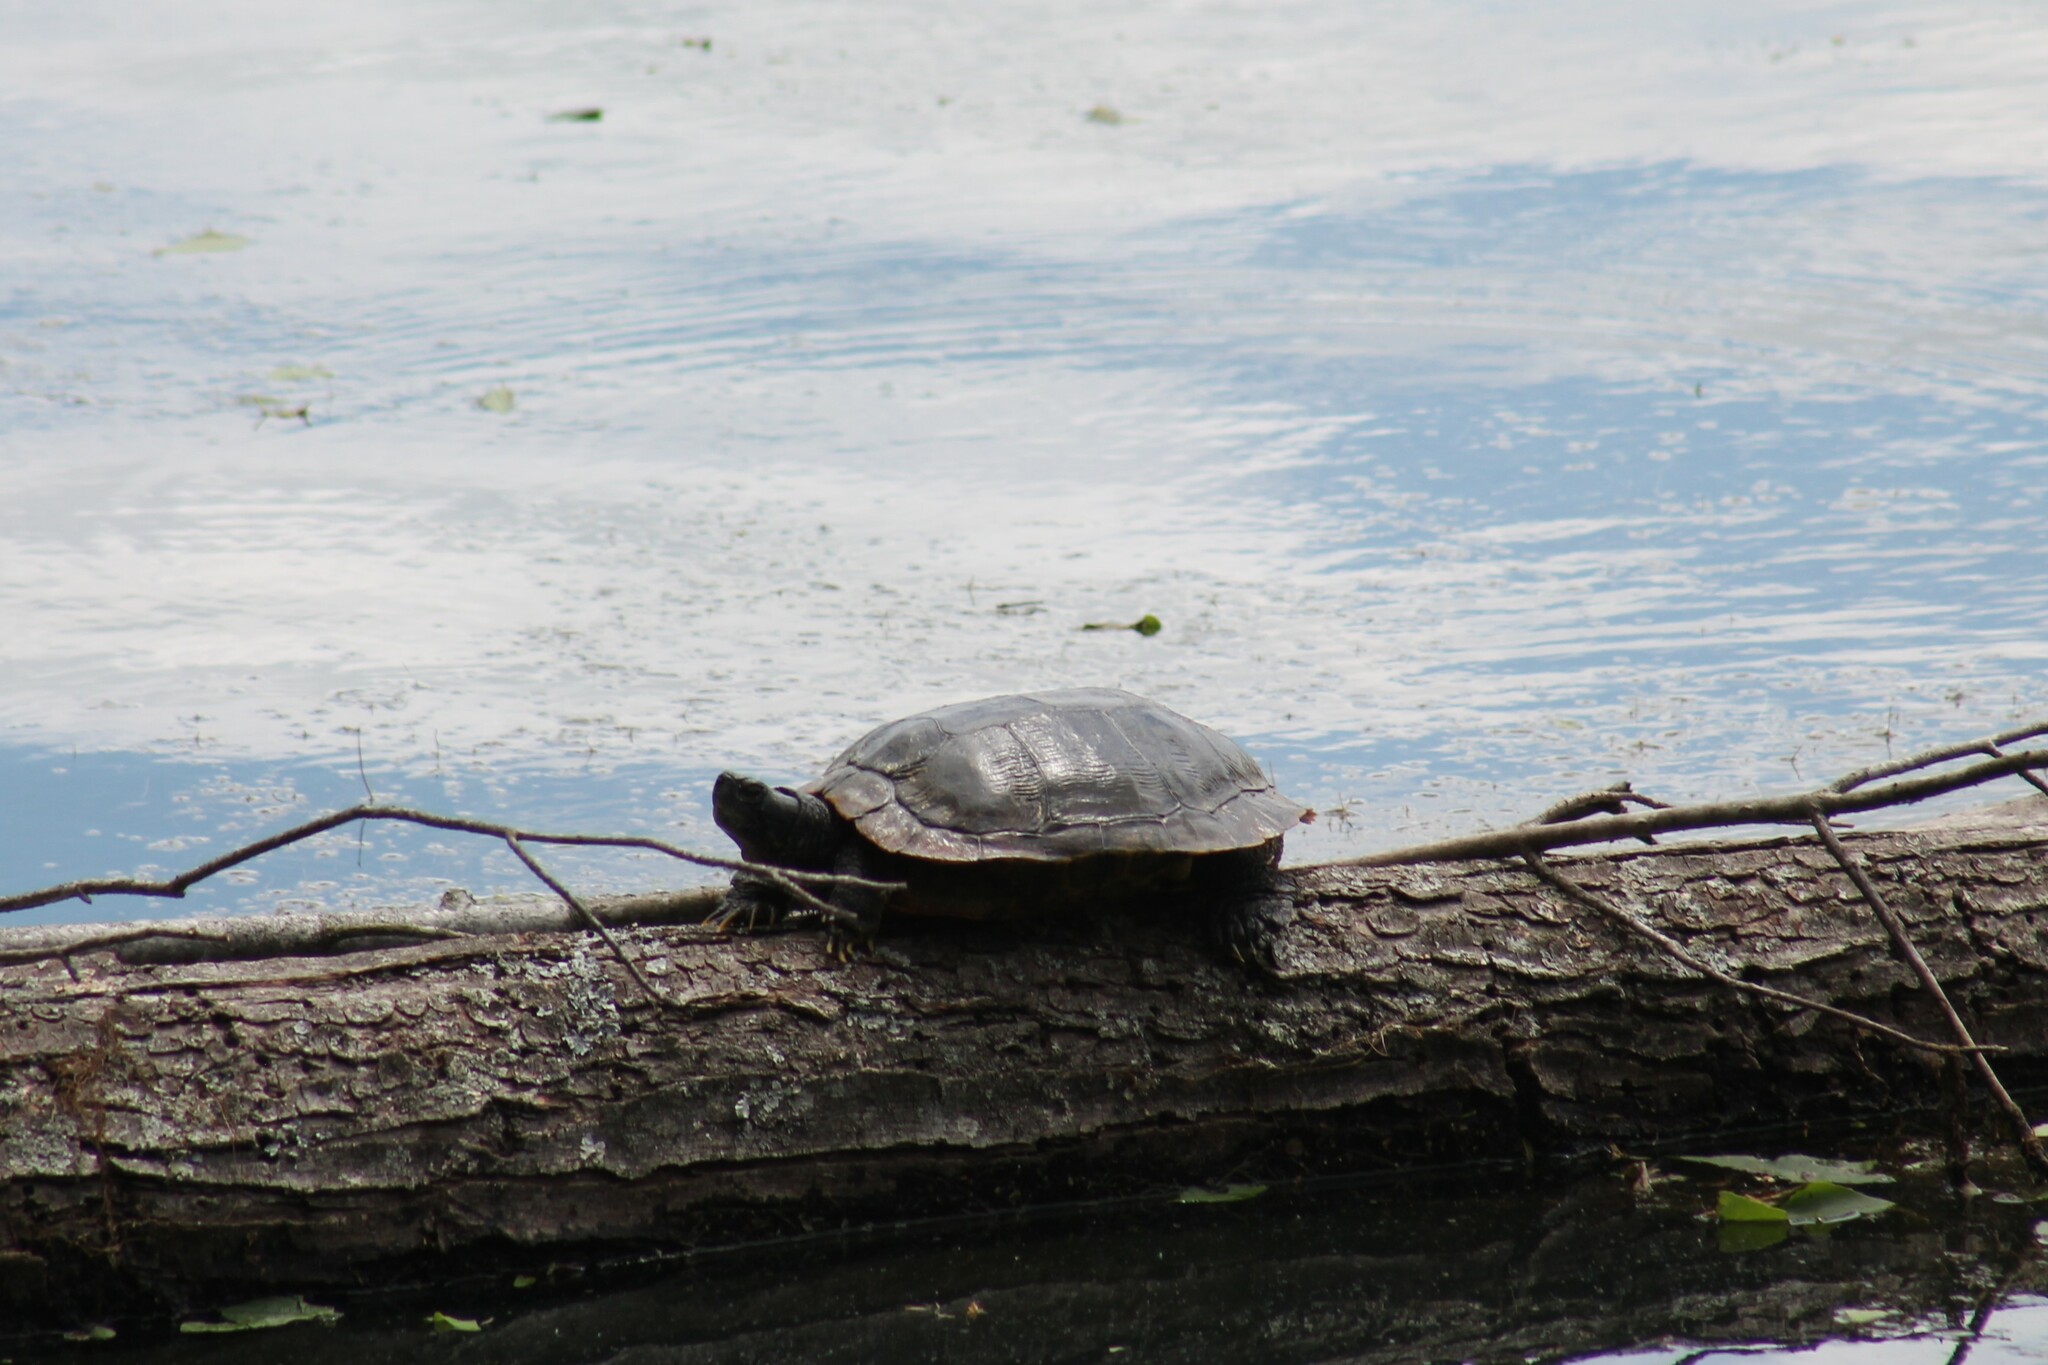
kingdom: Animalia
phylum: Chordata
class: Testudines
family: Emydidae
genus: Trachemys
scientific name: Trachemys scripta
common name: Slider
